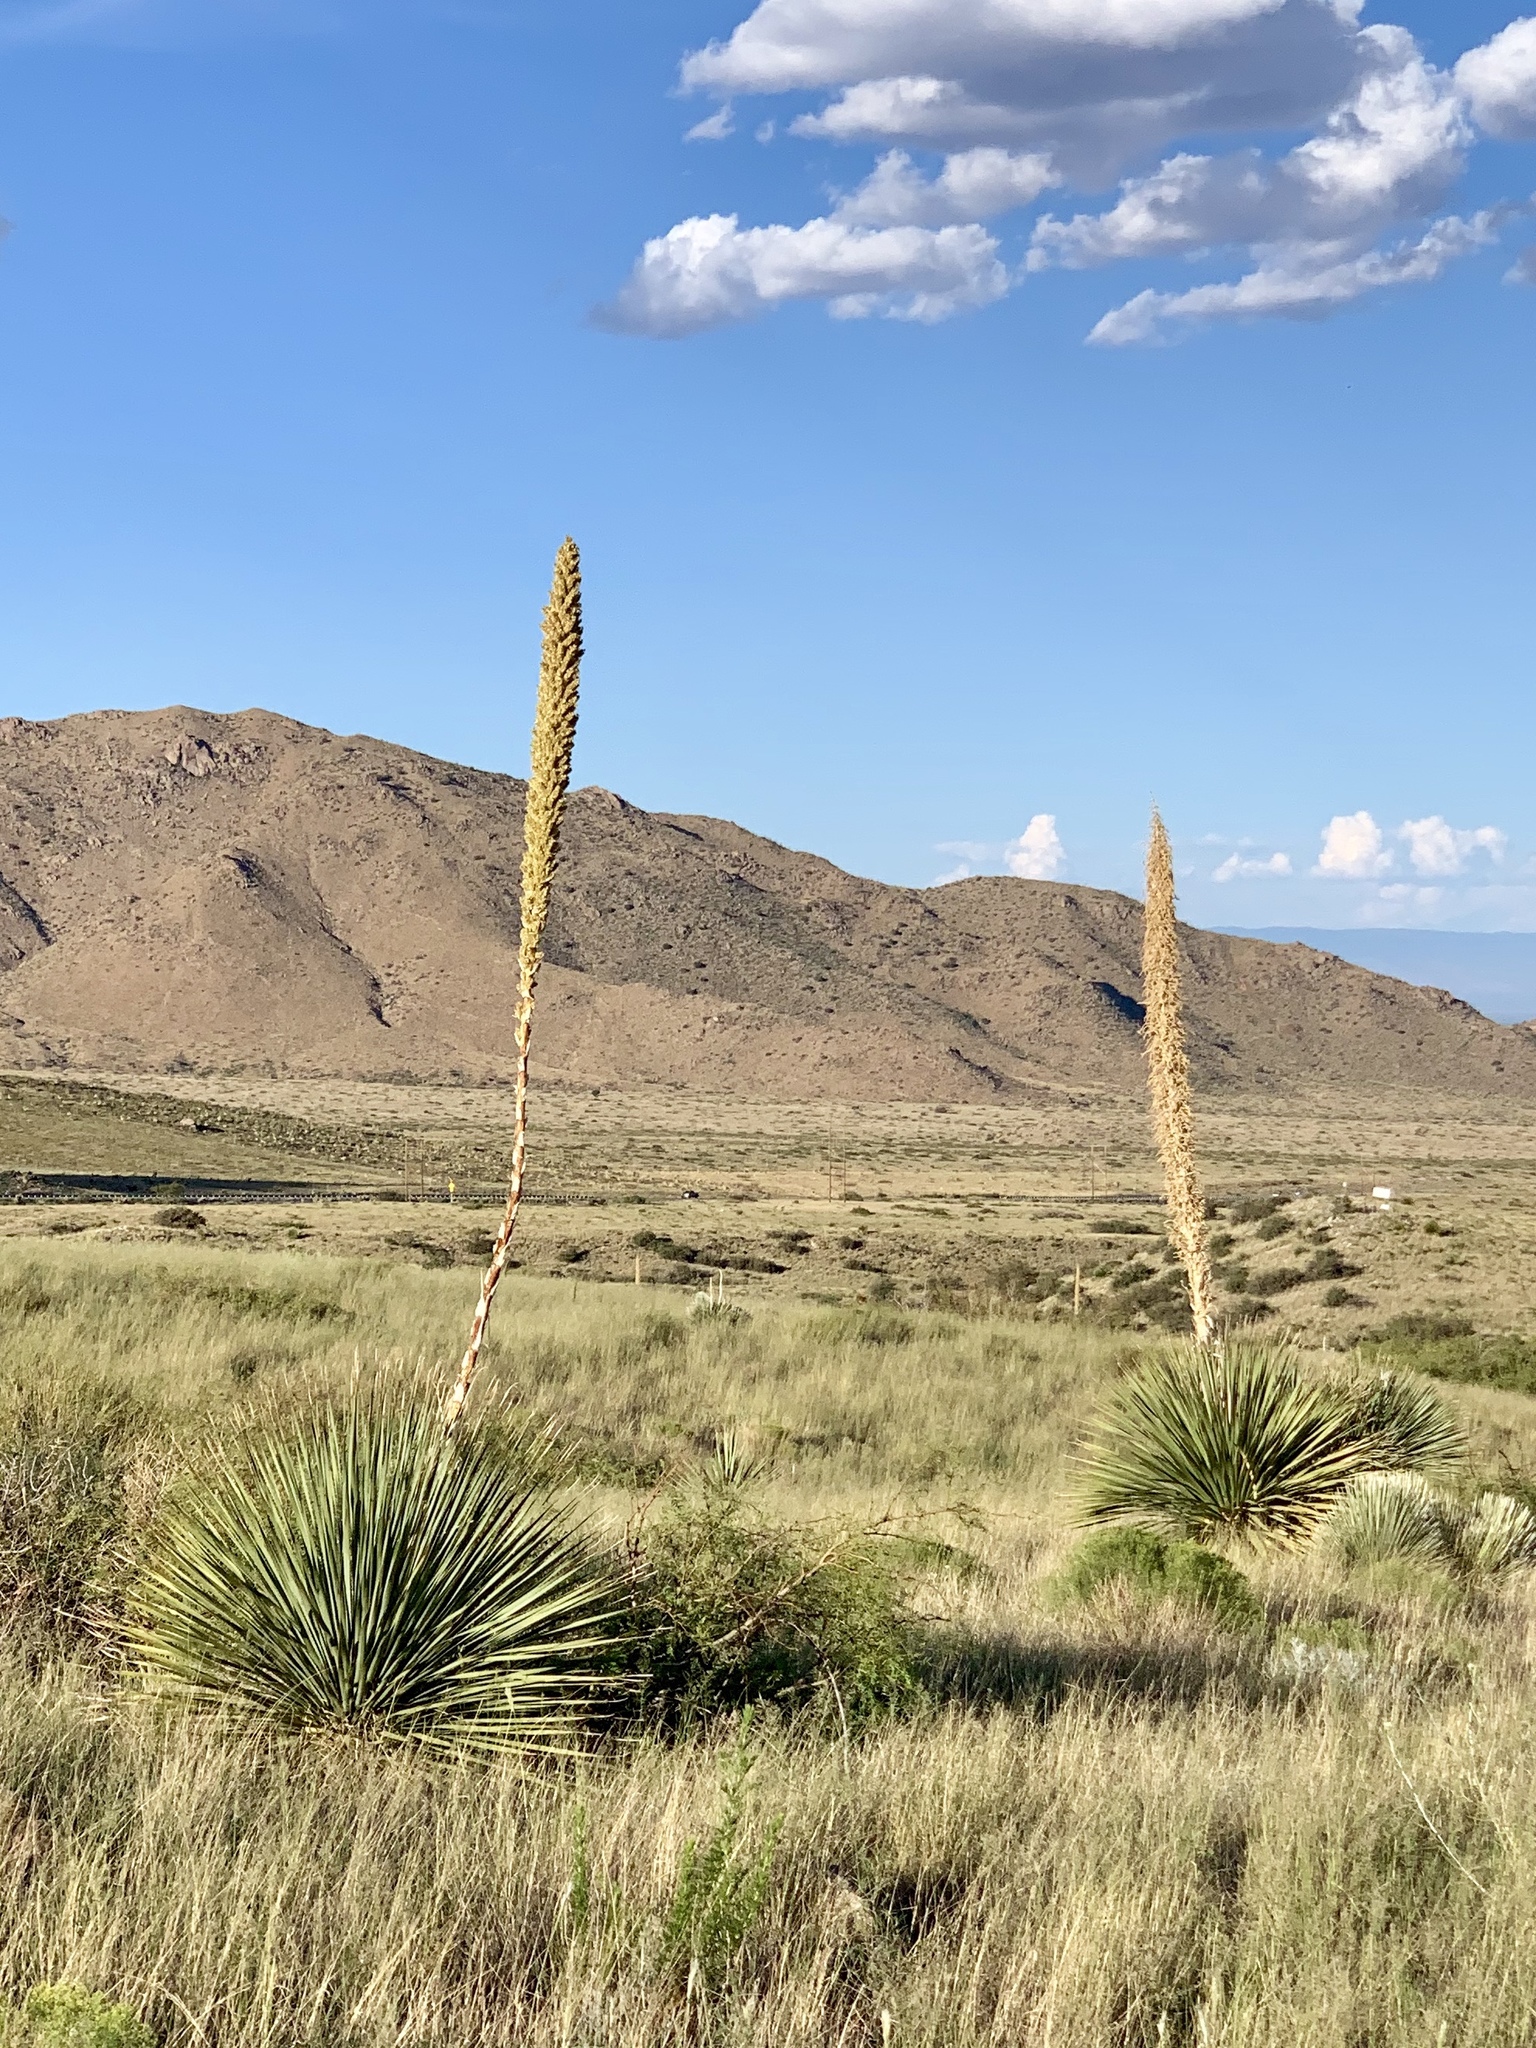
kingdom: Plantae
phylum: Tracheophyta
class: Liliopsida
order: Asparagales
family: Asparagaceae
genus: Dasylirion
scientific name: Dasylirion wheeleri
